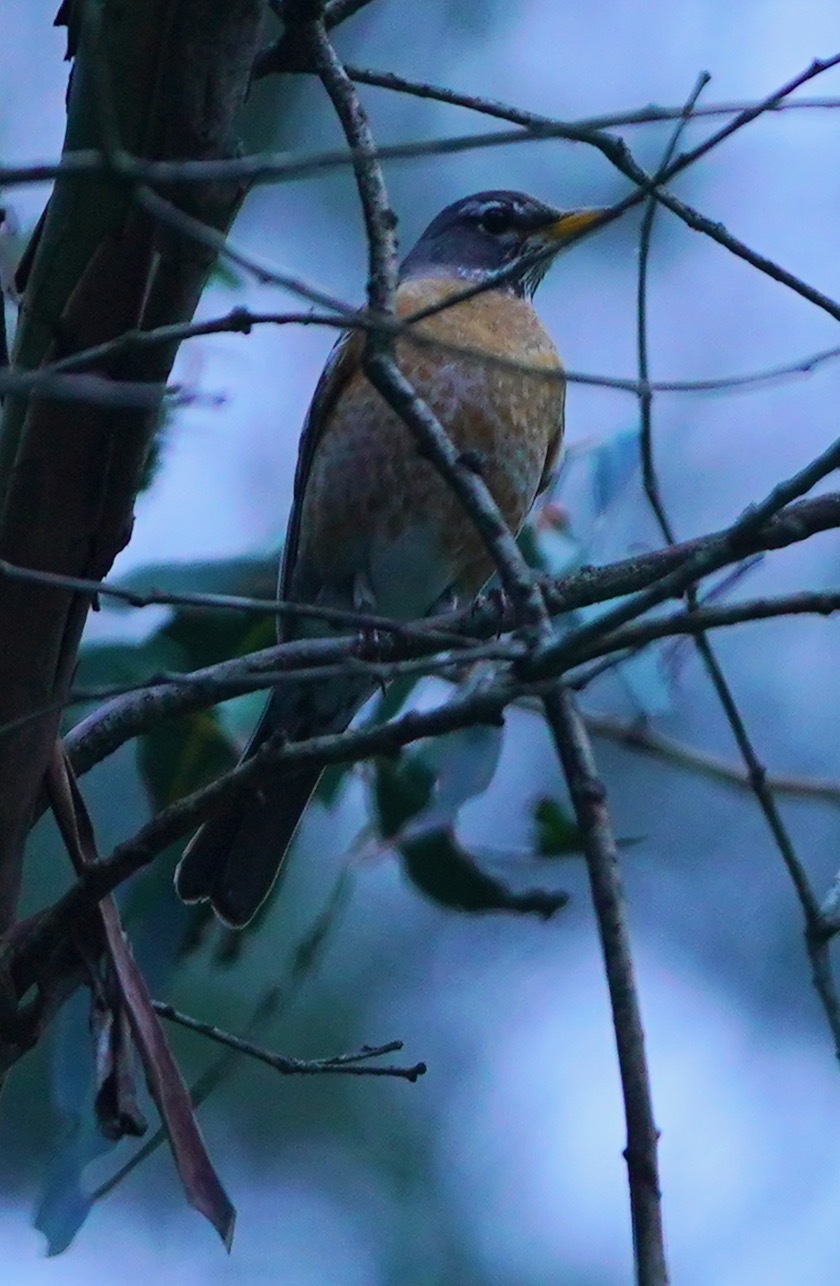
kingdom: Animalia
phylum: Chordata
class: Aves
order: Passeriformes
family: Turdidae
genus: Turdus
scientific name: Turdus migratorius
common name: American robin
